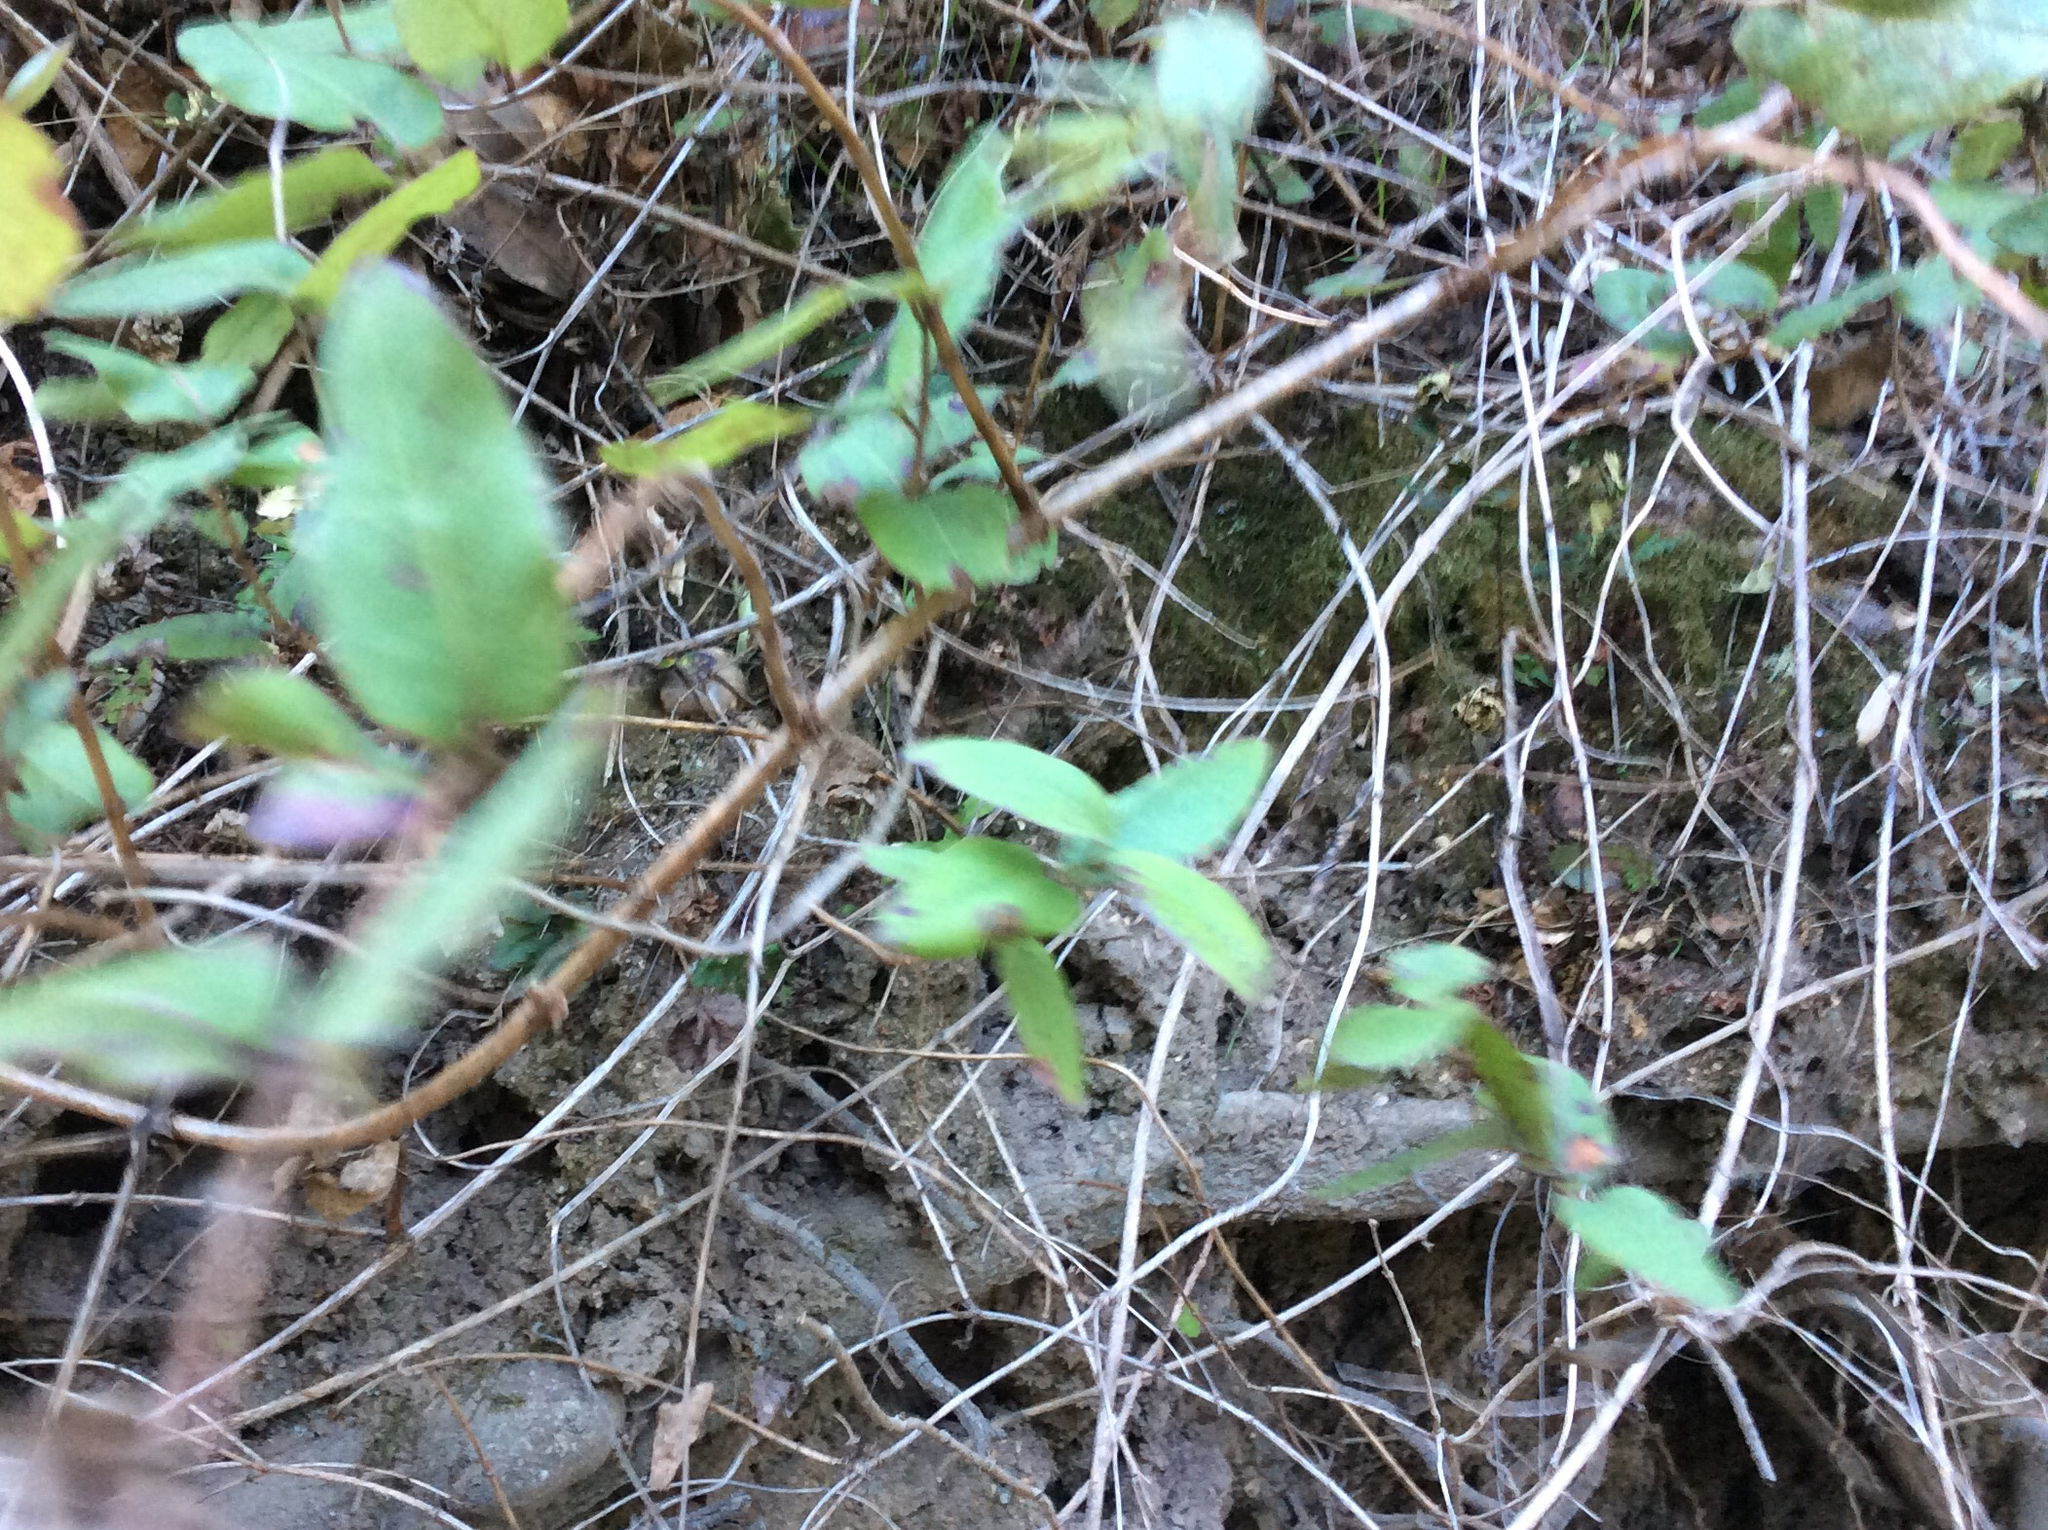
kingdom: Plantae
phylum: Tracheophyta
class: Magnoliopsida
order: Dipsacales
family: Caprifoliaceae
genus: Lonicera
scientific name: Lonicera hispidula
